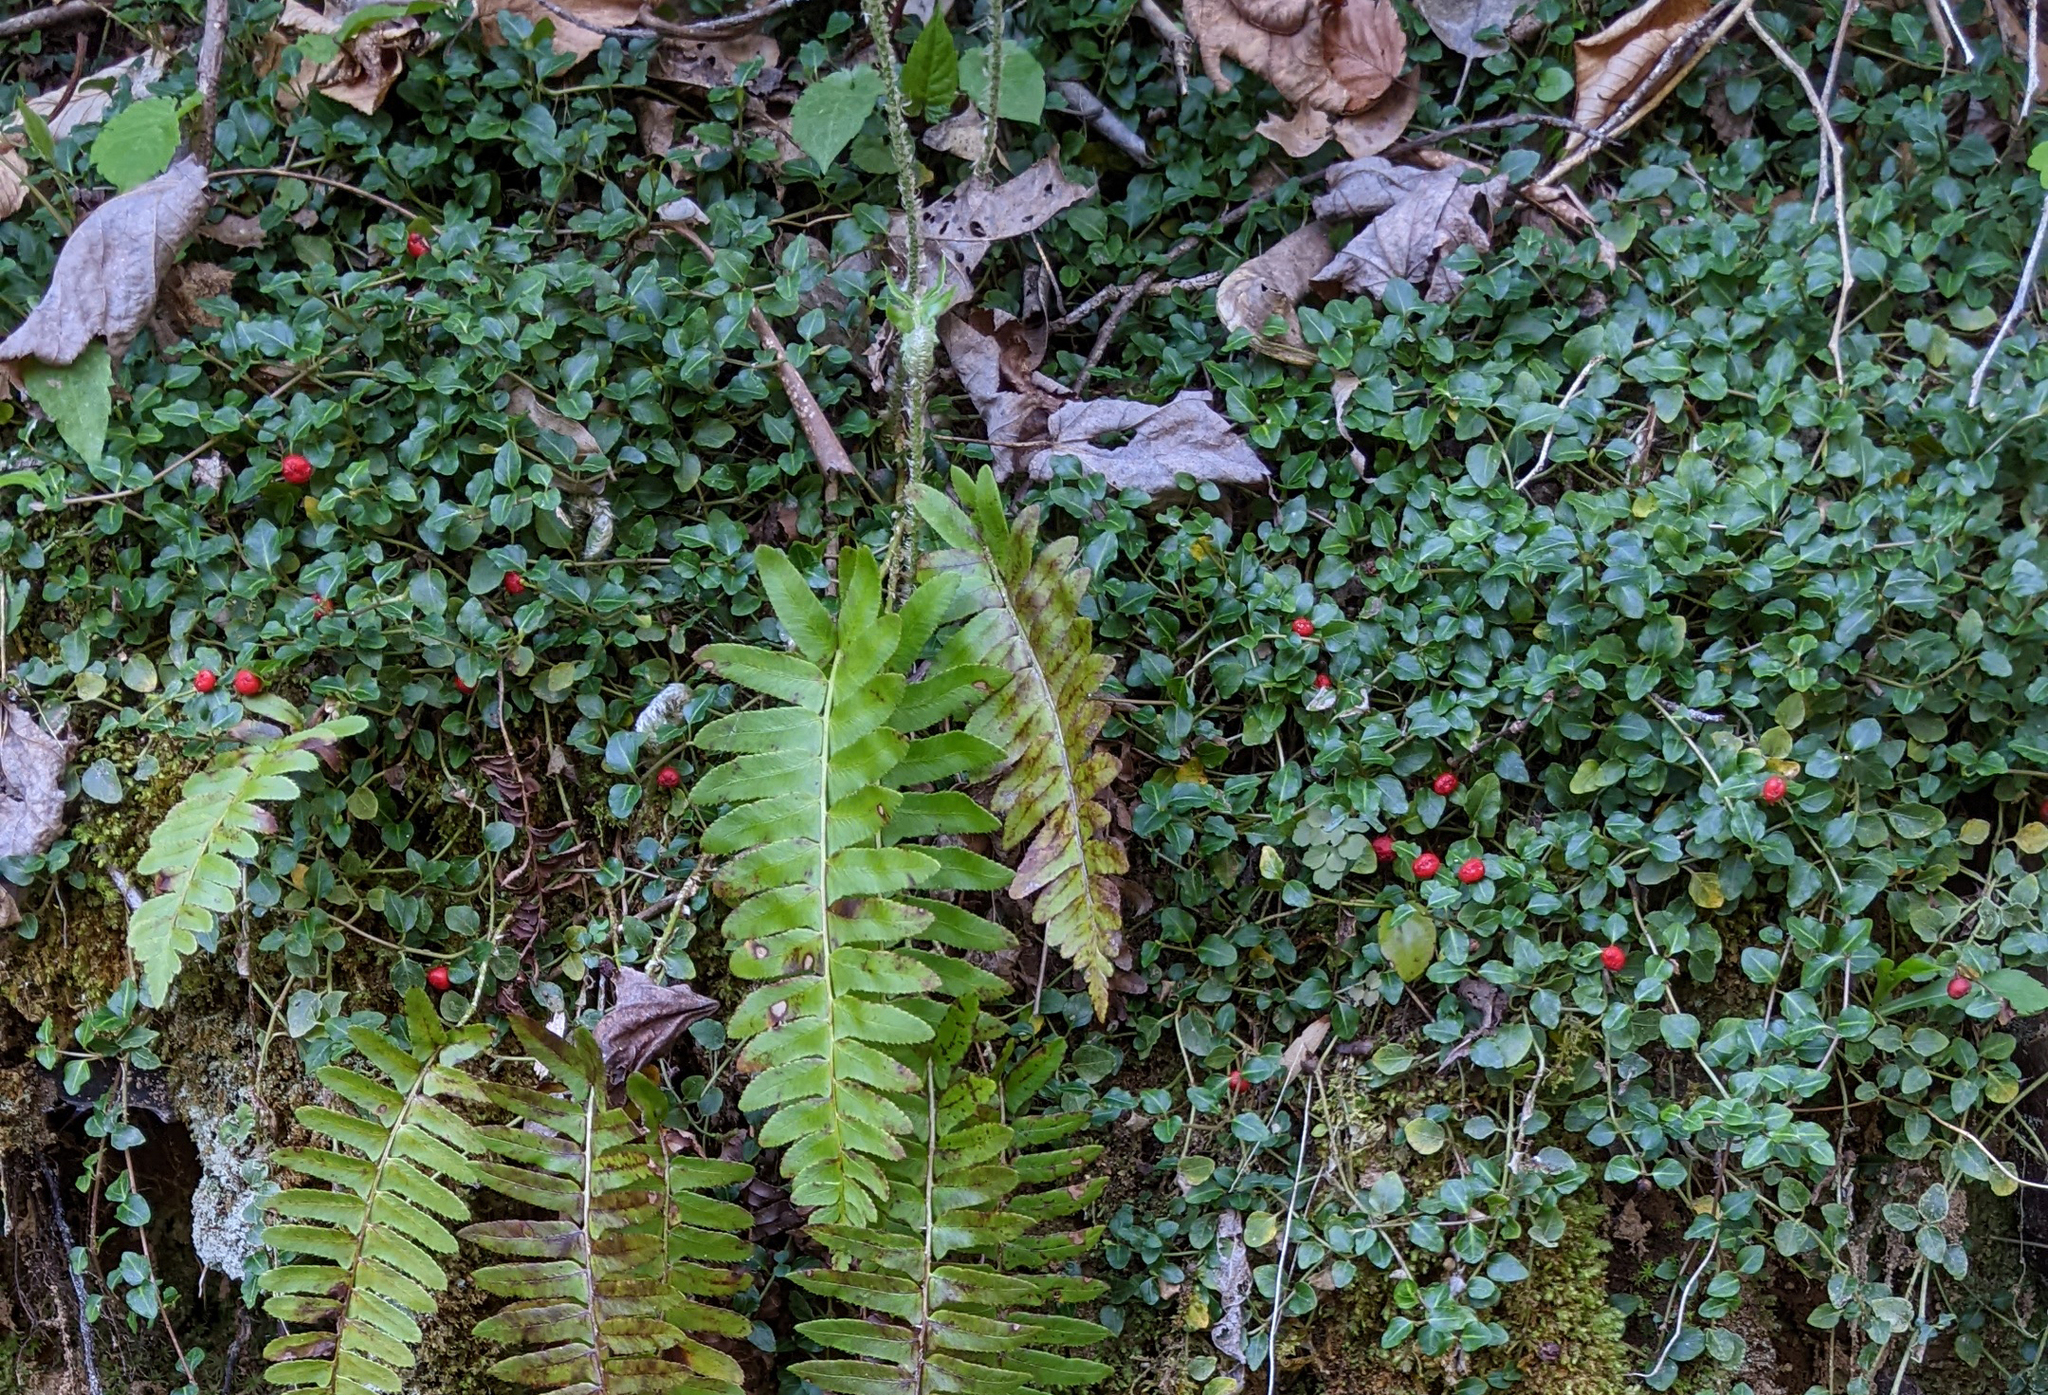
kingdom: Plantae
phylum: Tracheophyta
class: Magnoliopsida
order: Gentianales
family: Rubiaceae
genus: Mitchella
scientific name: Mitchella repens
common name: Partridge-berry
